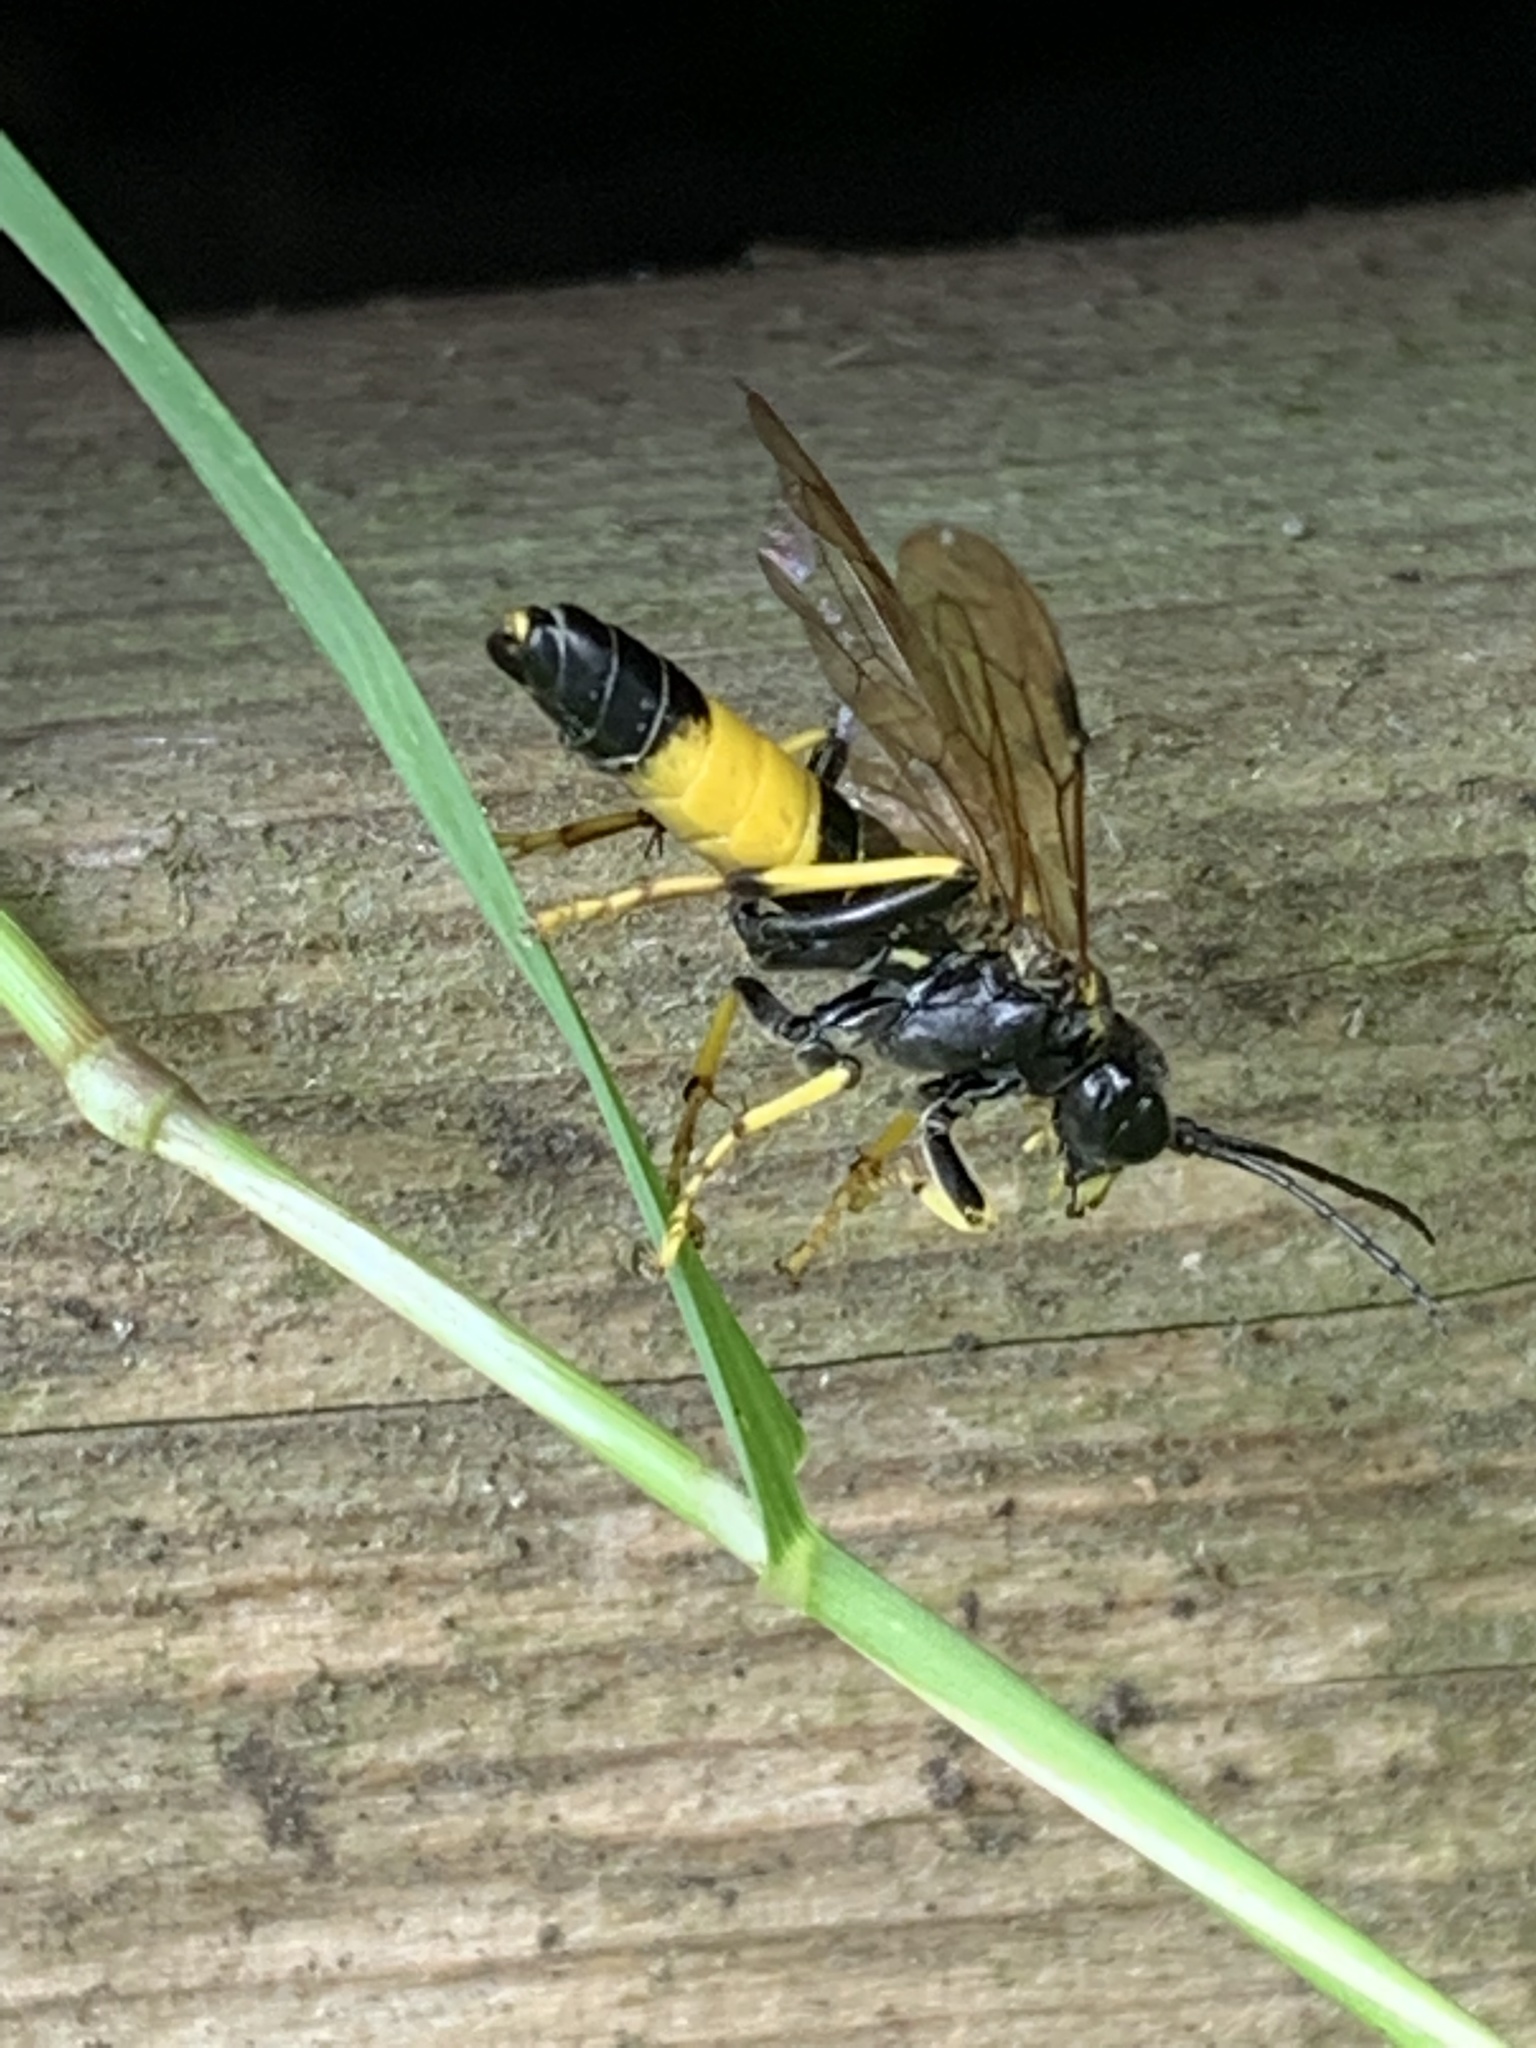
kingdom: Animalia
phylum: Arthropoda
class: Insecta
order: Hymenoptera
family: Tenthredinidae
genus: Tenthredo
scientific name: Tenthredo maculata
